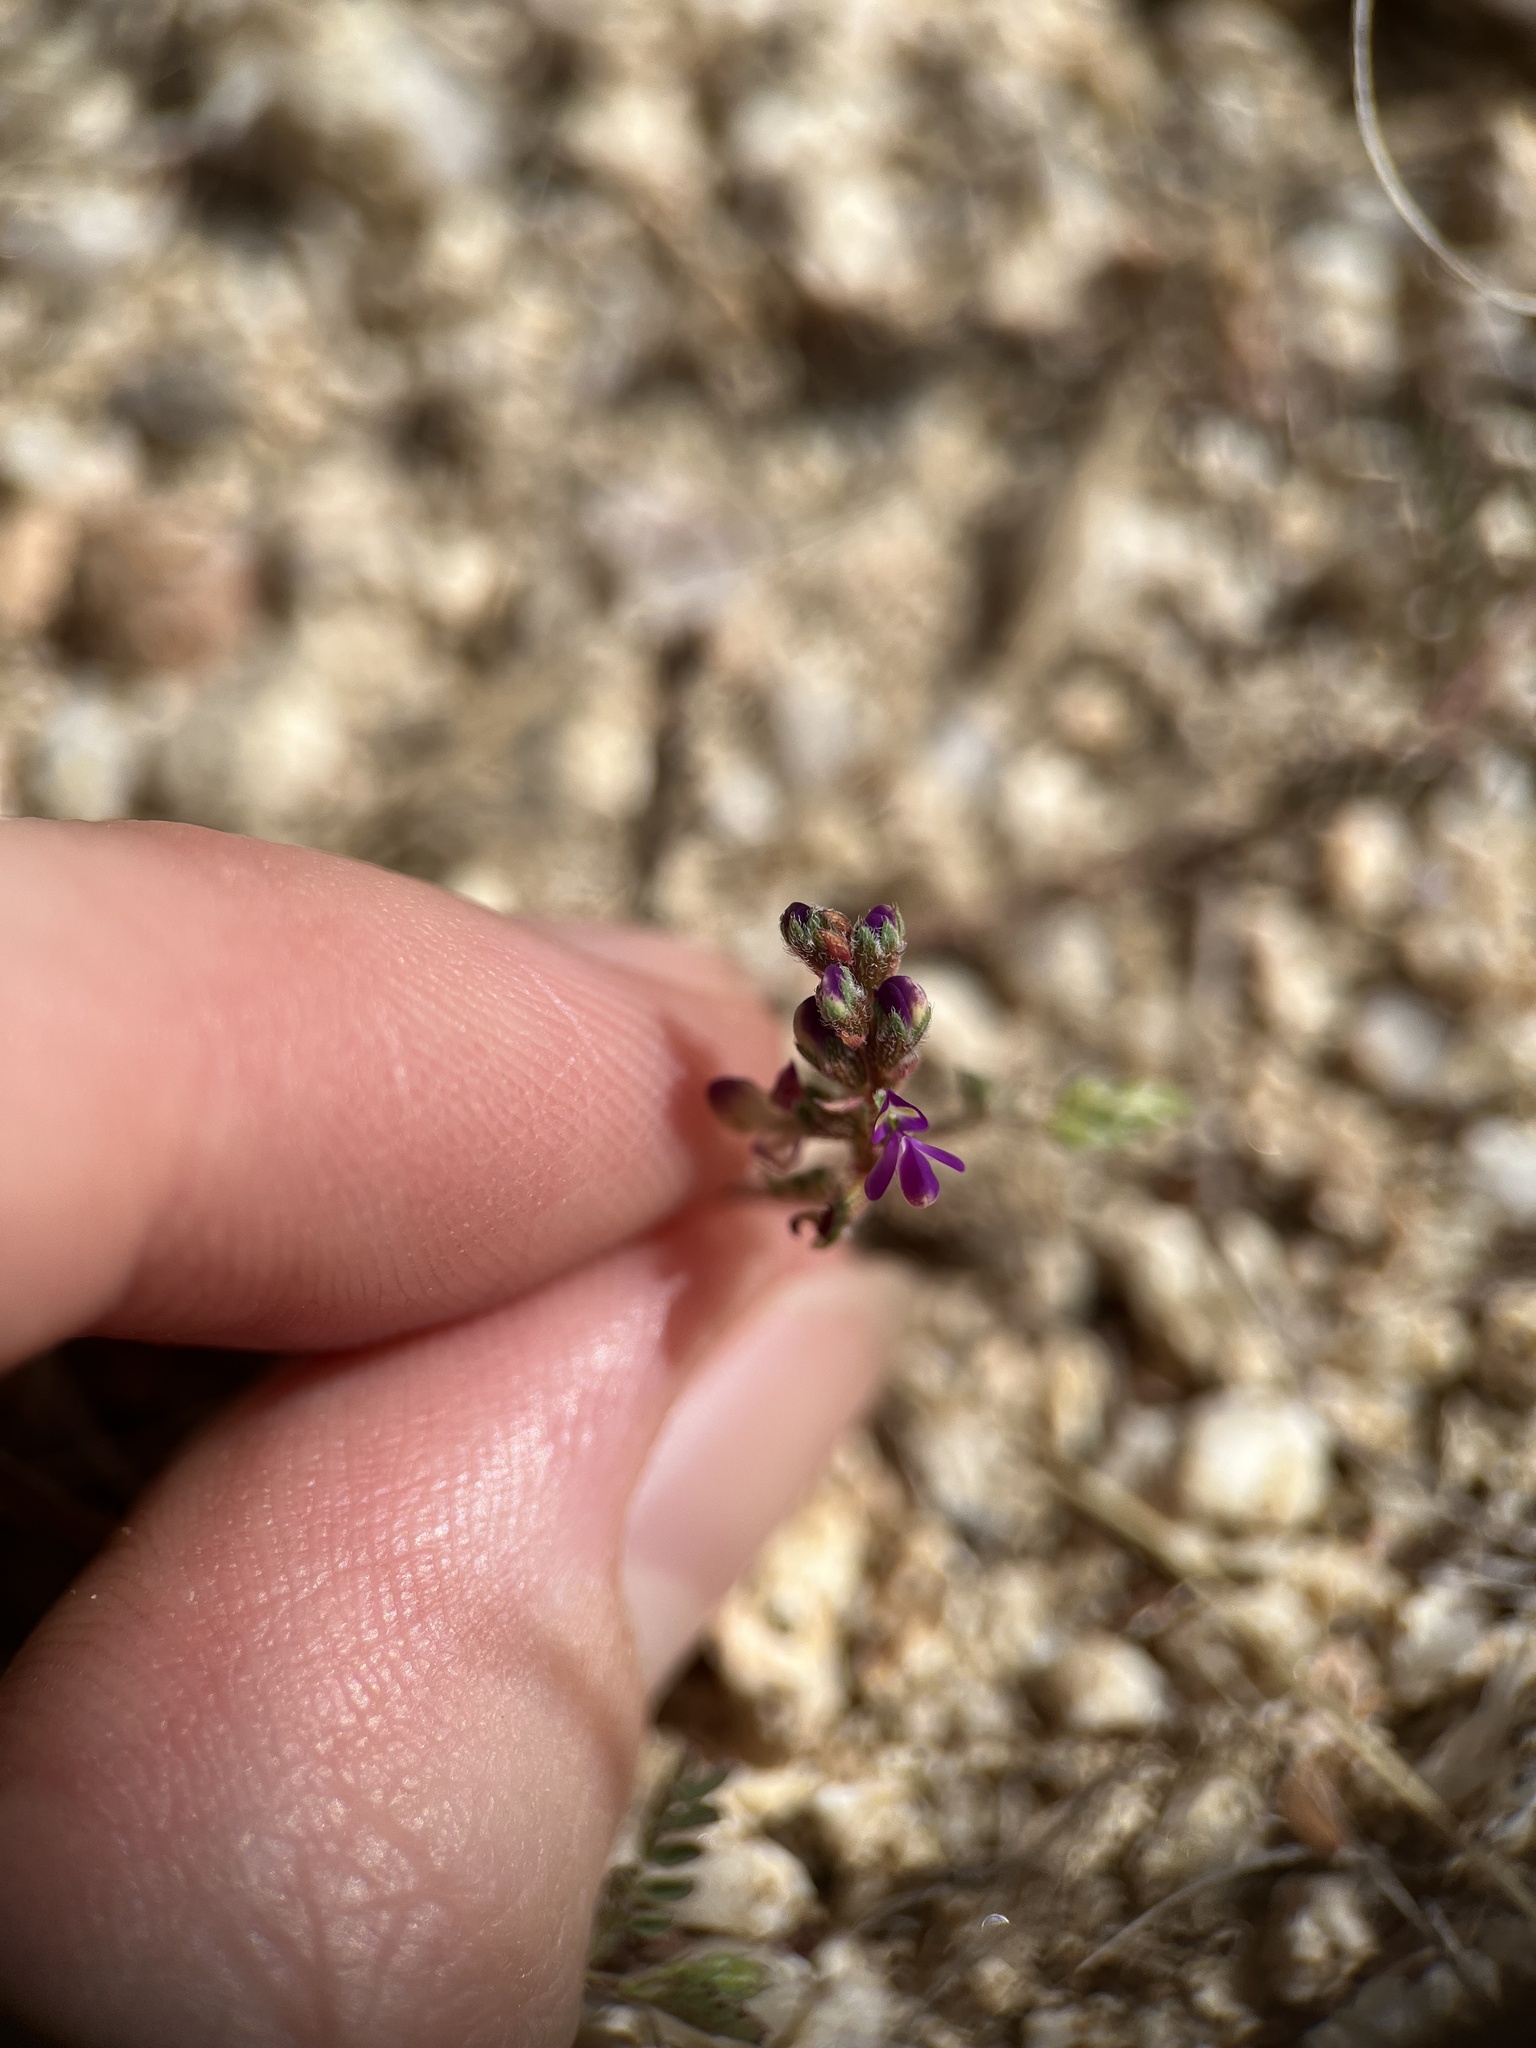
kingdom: Plantae
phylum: Tracheophyta
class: Magnoliopsida
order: Fabales
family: Fabaceae
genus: Marina
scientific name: Marina interstes
